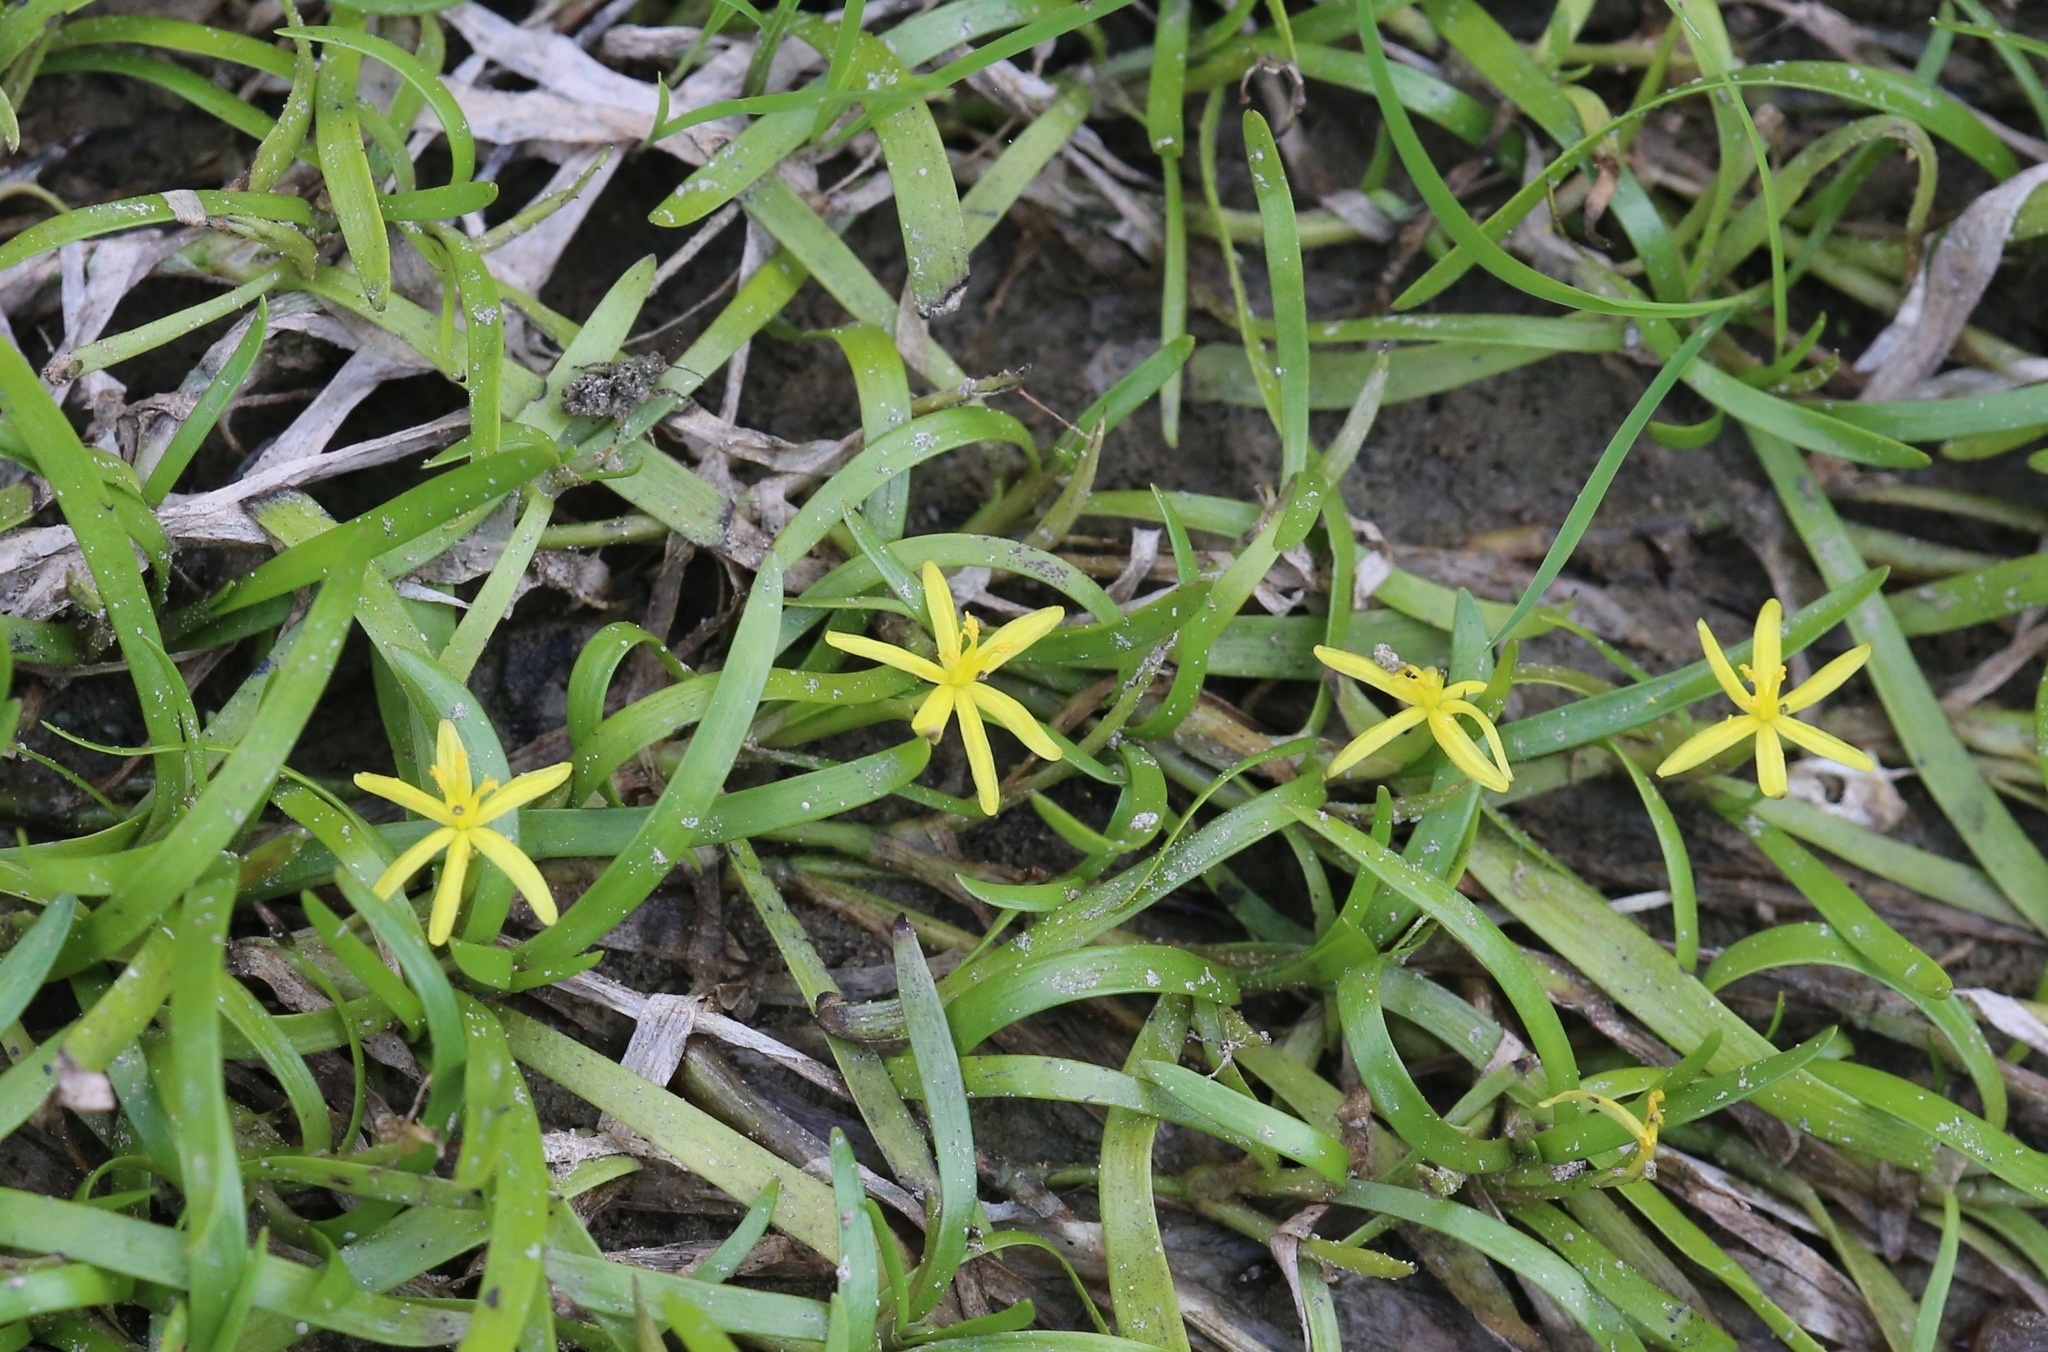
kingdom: Plantae
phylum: Tracheophyta
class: Liliopsida
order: Commelinales
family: Pontederiaceae
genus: Heteranthera
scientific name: Heteranthera dubia
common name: Grass-leaved mud plantain
